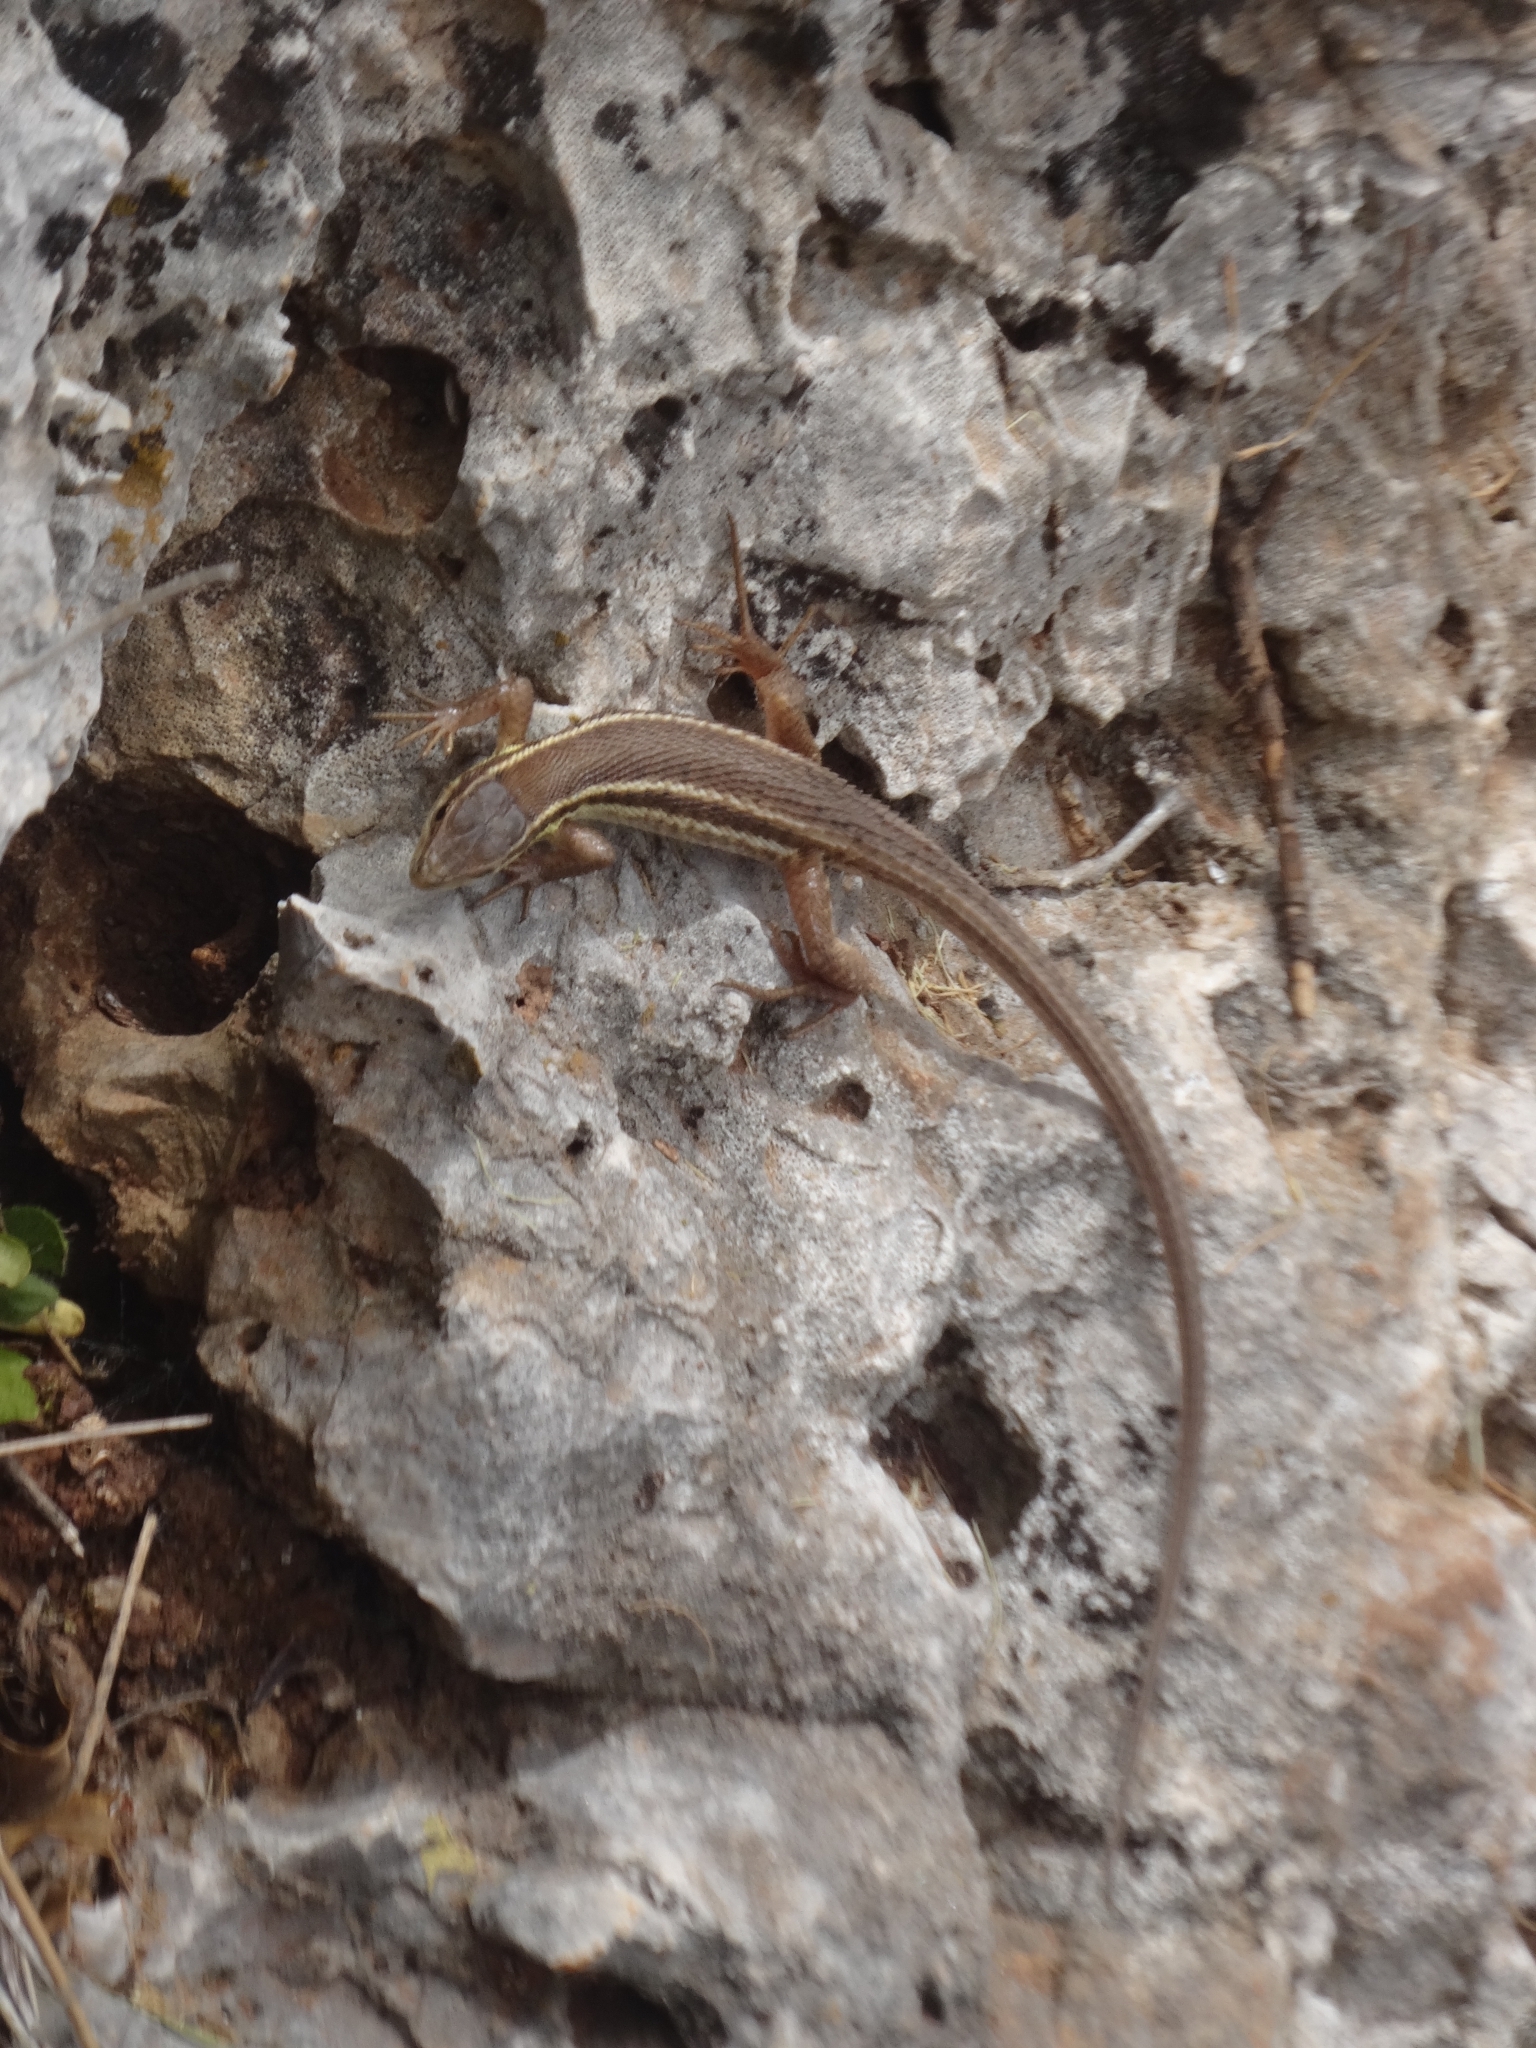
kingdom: Animalia
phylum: Chordata
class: Squamata
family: Lacertidae
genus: Ophisops
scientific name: Ophisops elegans
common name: Snake-eyed lizard
